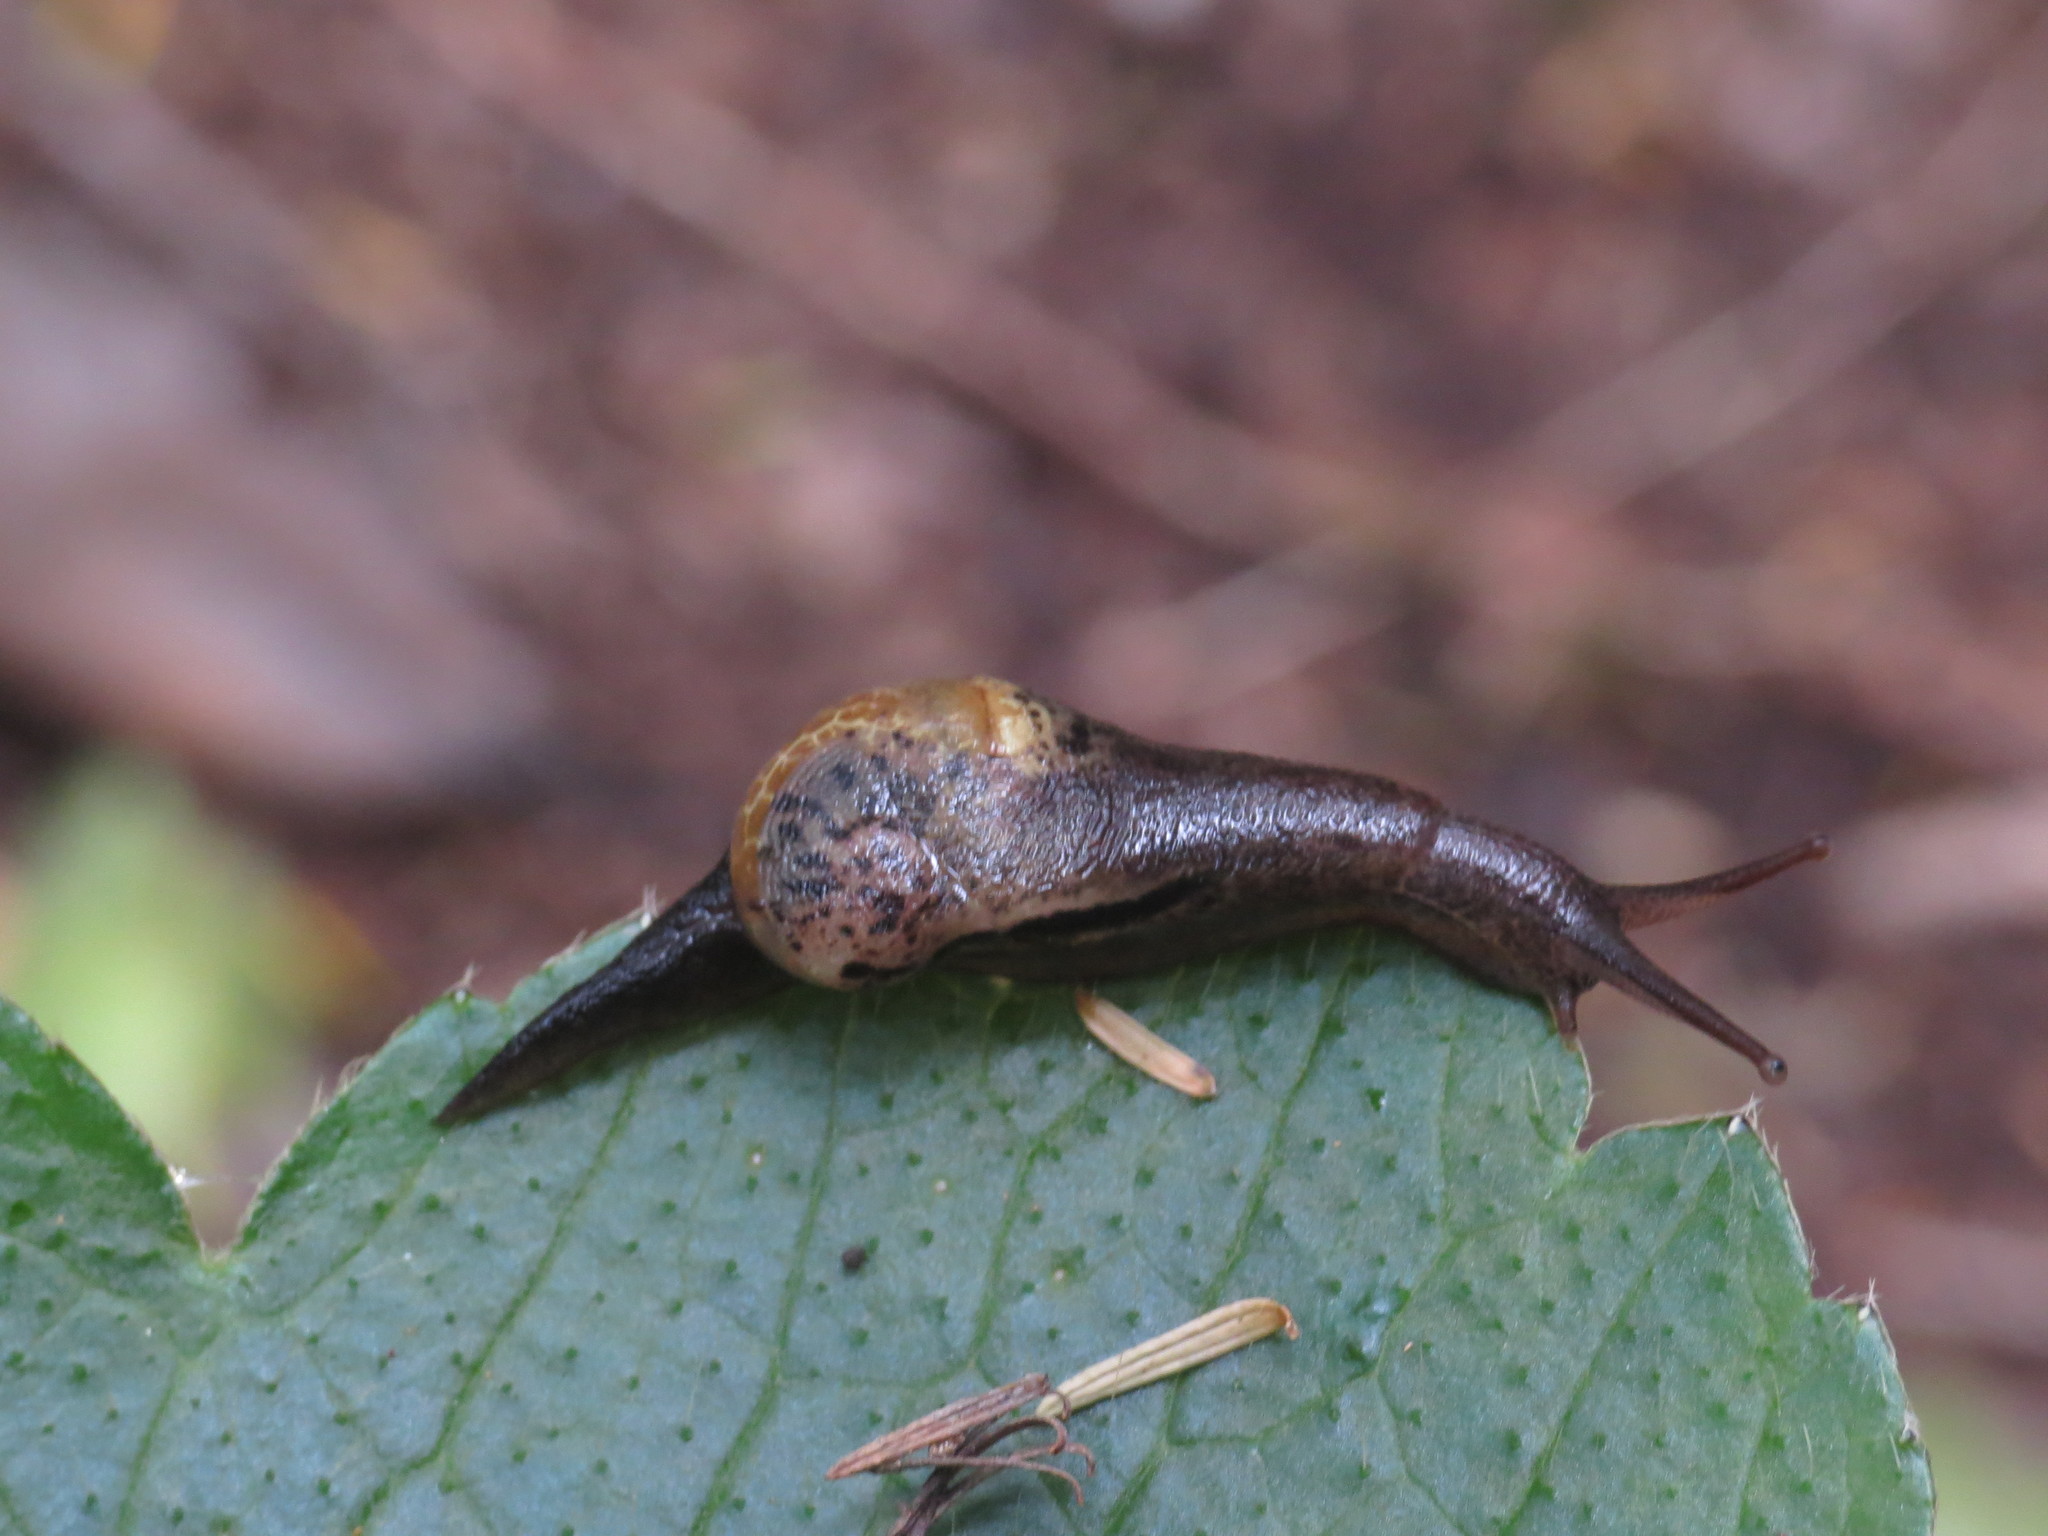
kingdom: Animalia
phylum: Mollusca
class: Gastropoda
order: Stylommatophora
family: Vitrinidae
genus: Insulivitrina
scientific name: Insulivitrina lamarckii
